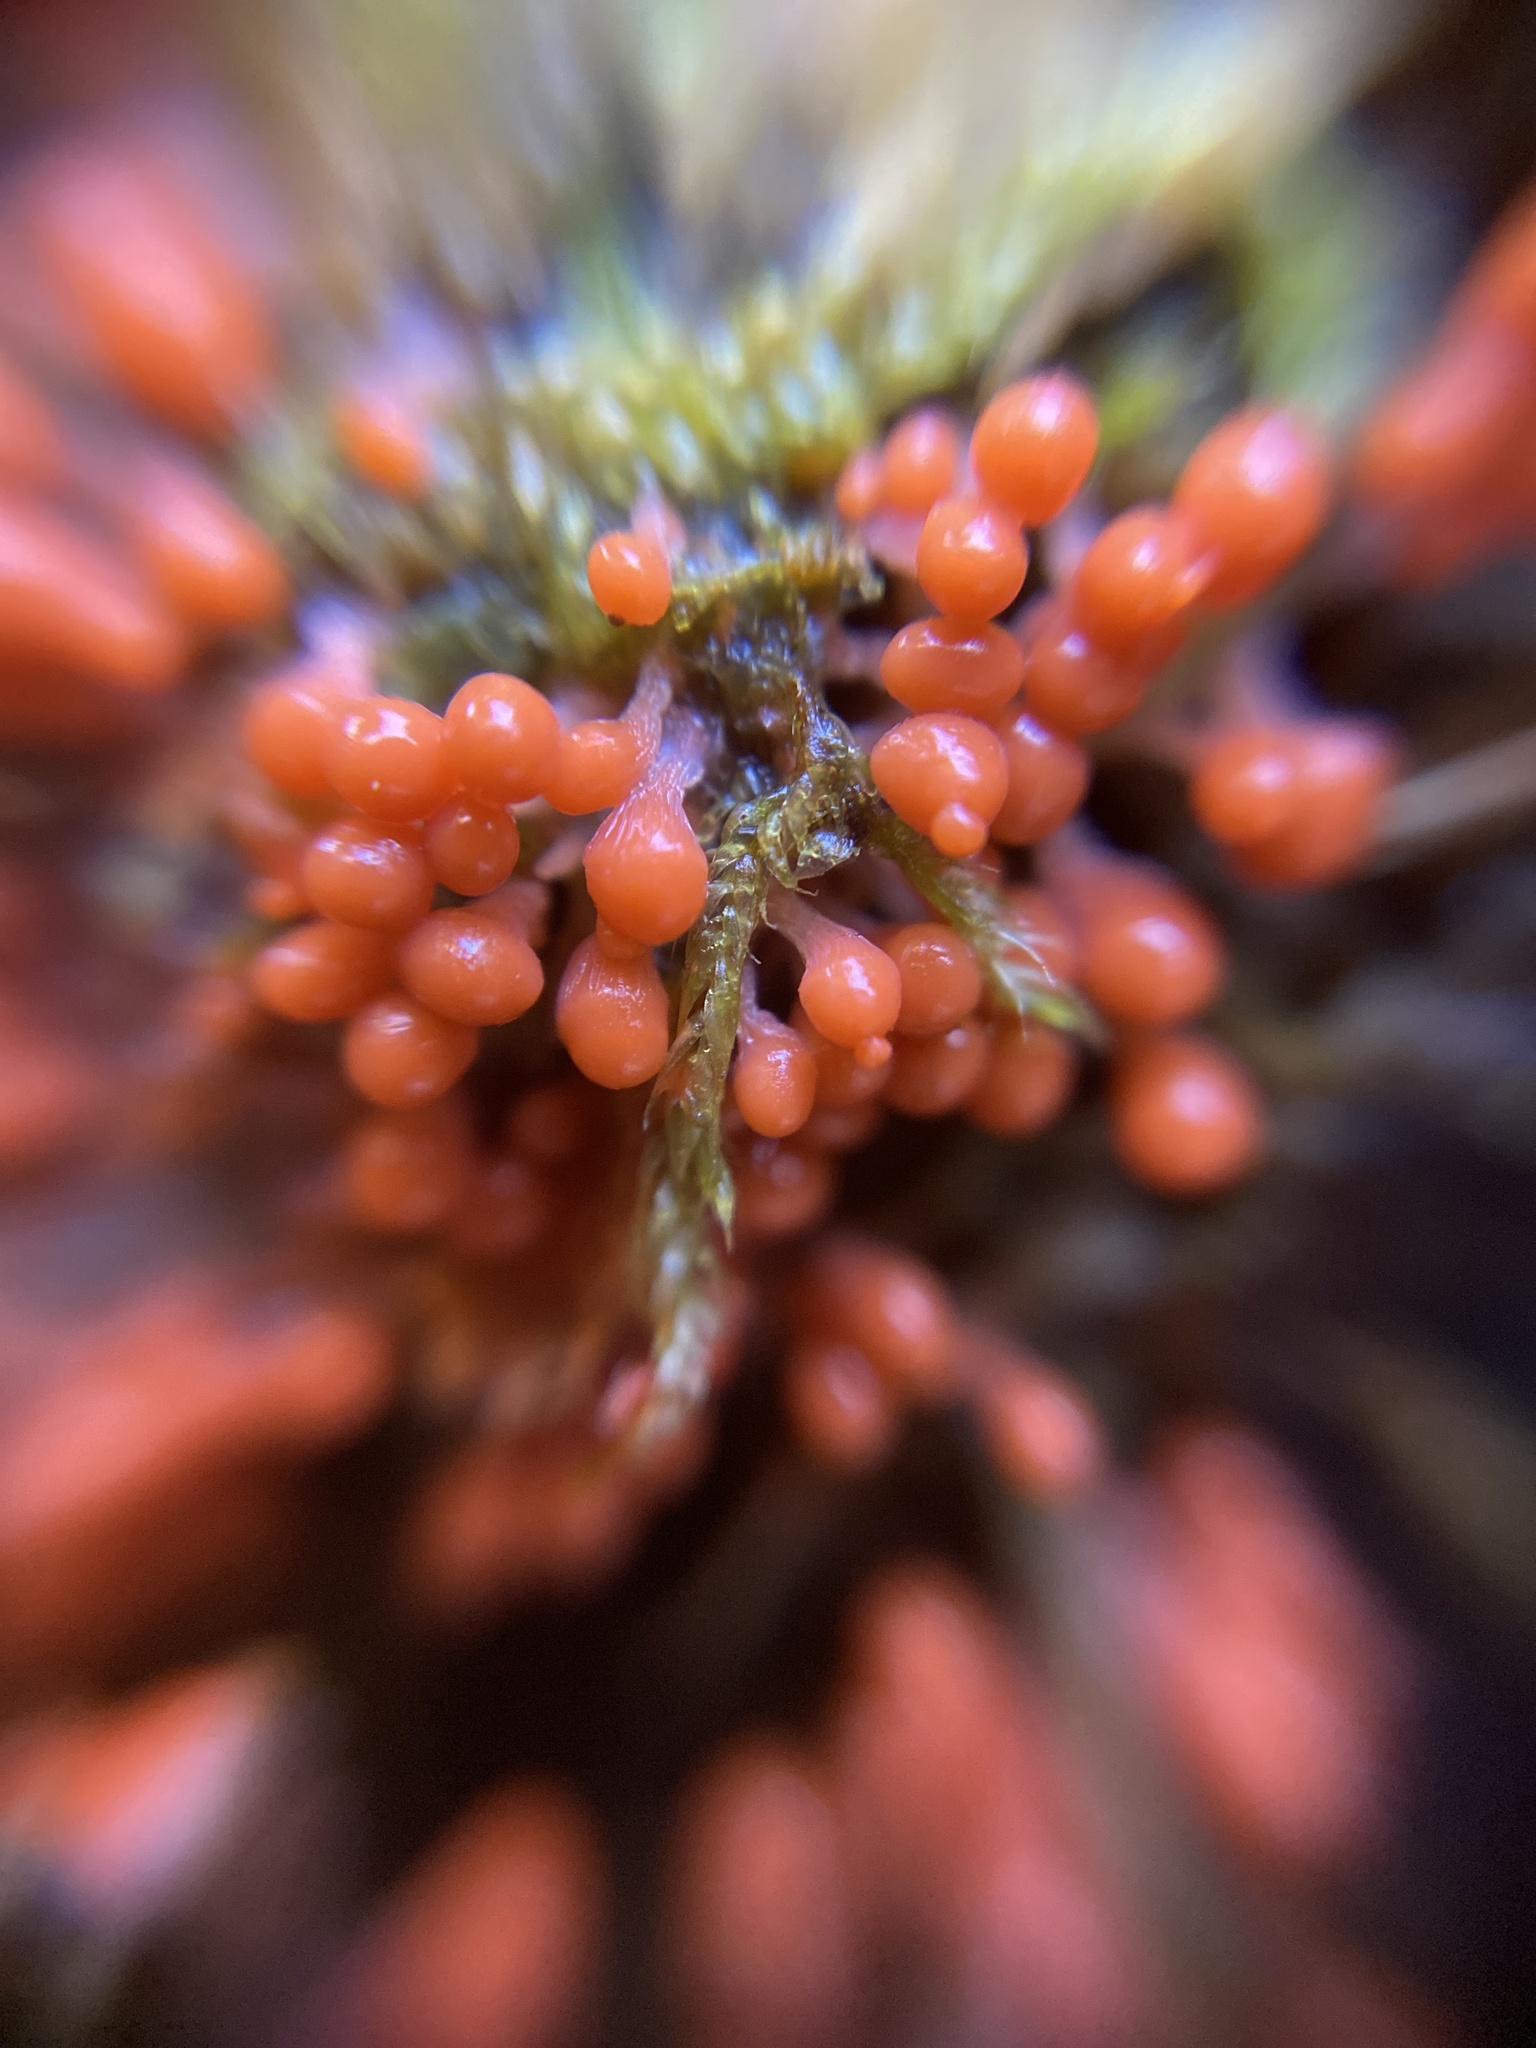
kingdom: Protozoa
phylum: Mycetozoa
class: Myxomycetes
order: Trichiales
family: Arcyriaceae
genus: Hemitrichia
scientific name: Hemitrichia decipiens
